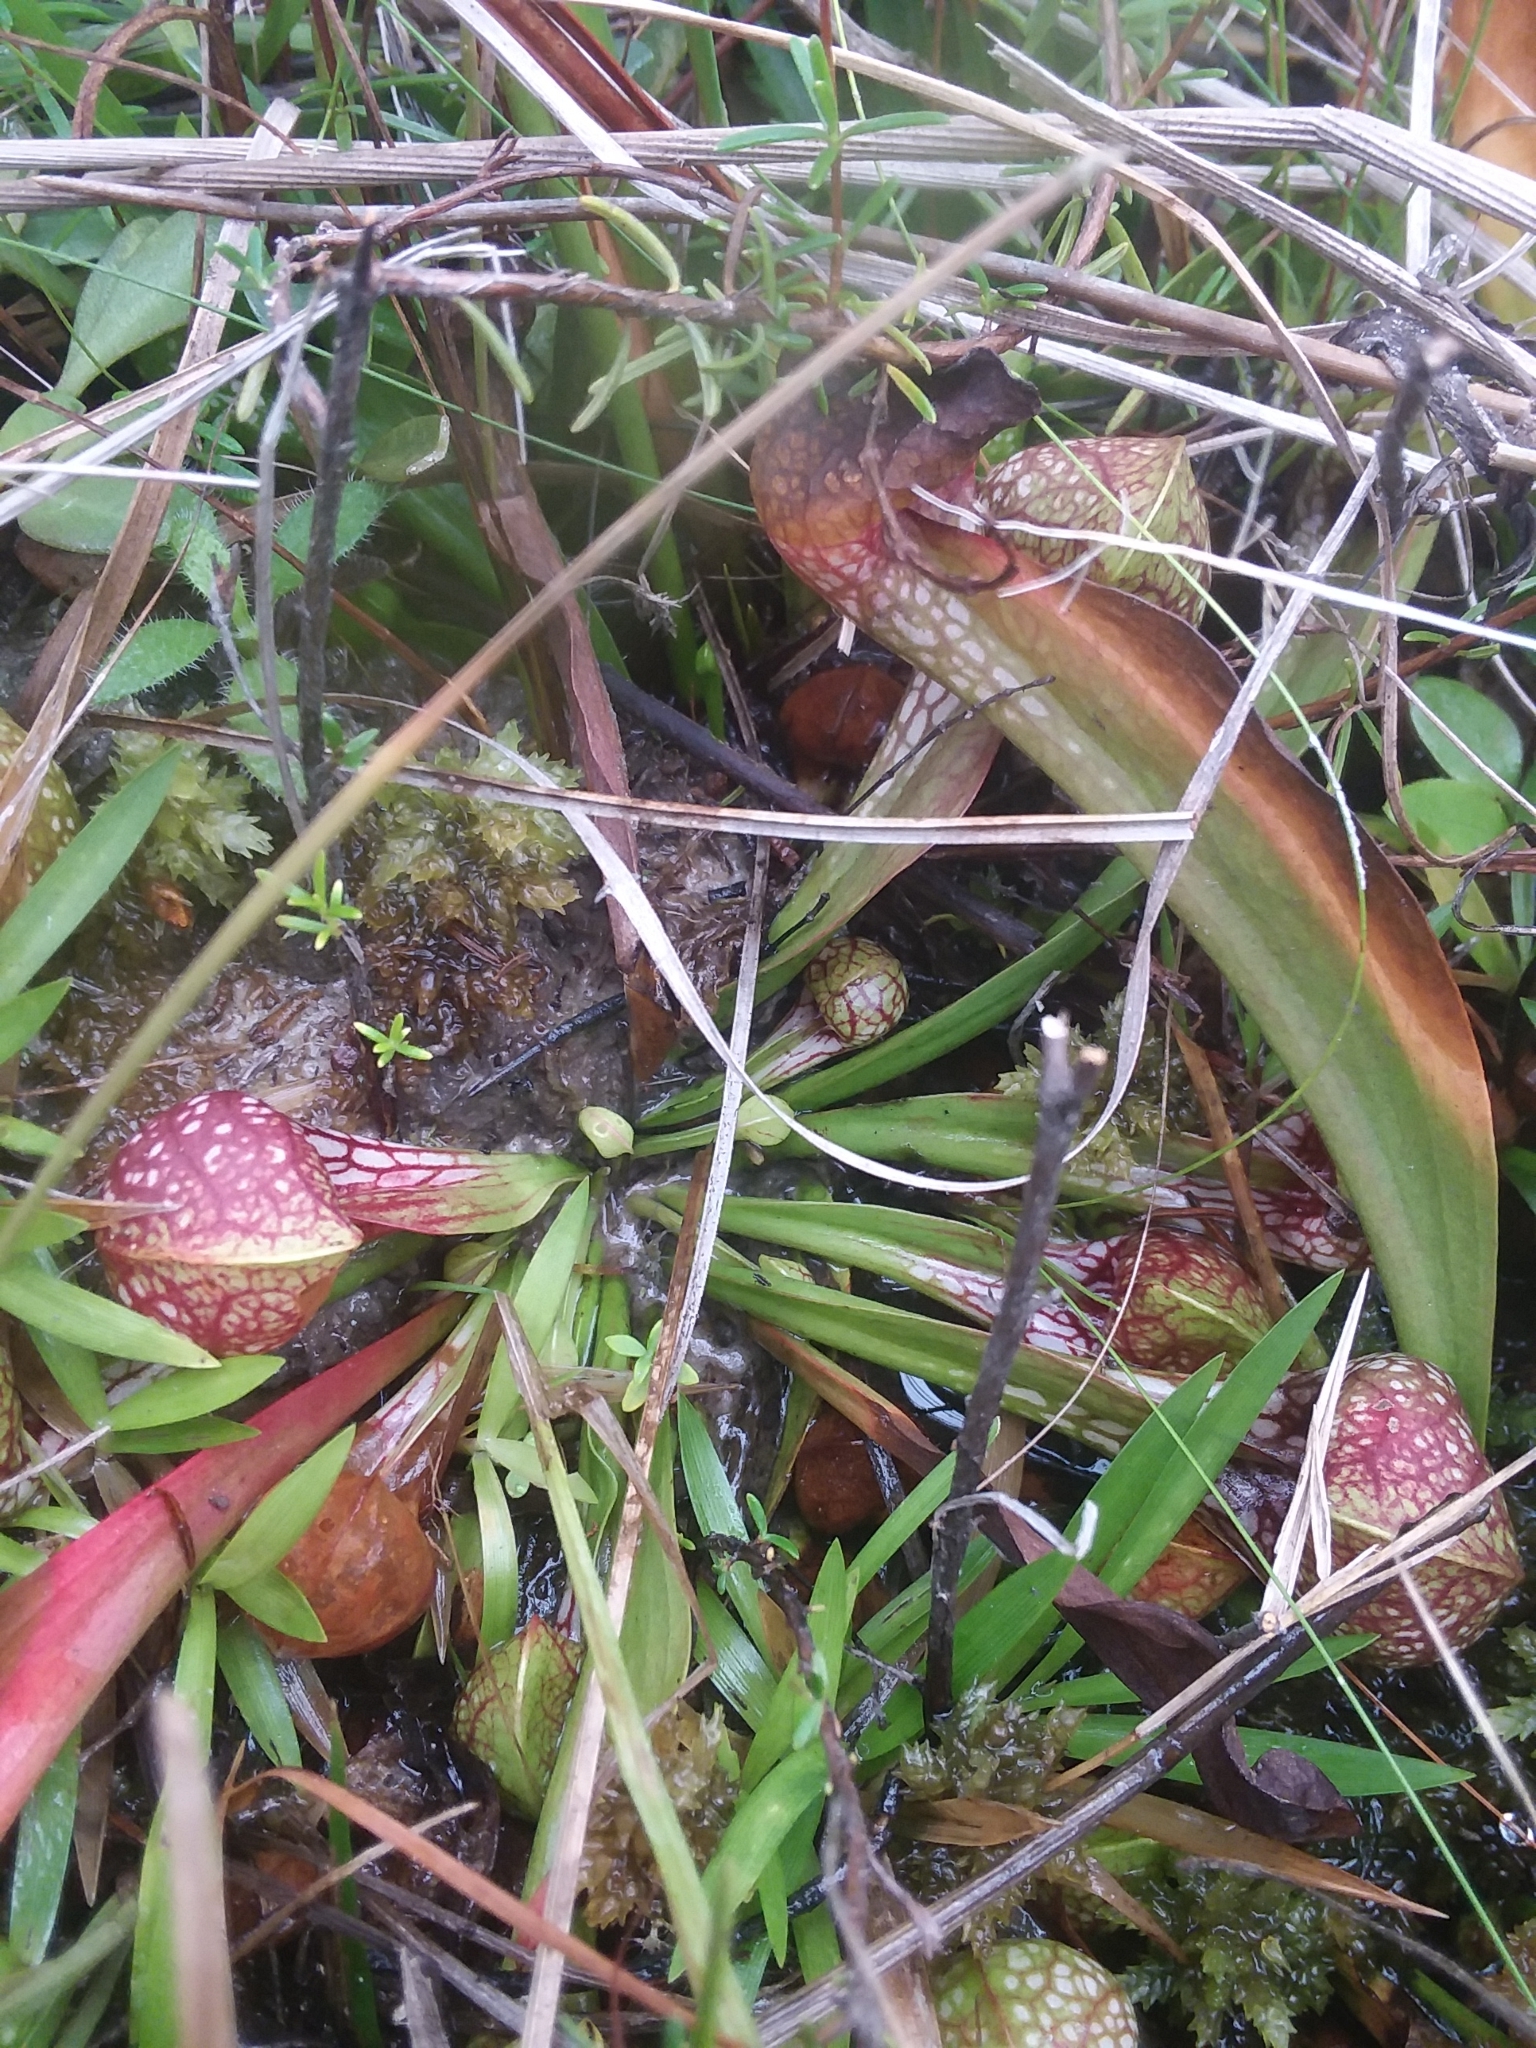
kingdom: Plantae
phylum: Tracheophyta
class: Magnoliopsida
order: Ericales
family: Sarraceniaceae
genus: Sarracenia
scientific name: Sarracenia psittacina
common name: Parrot pitcherplant
